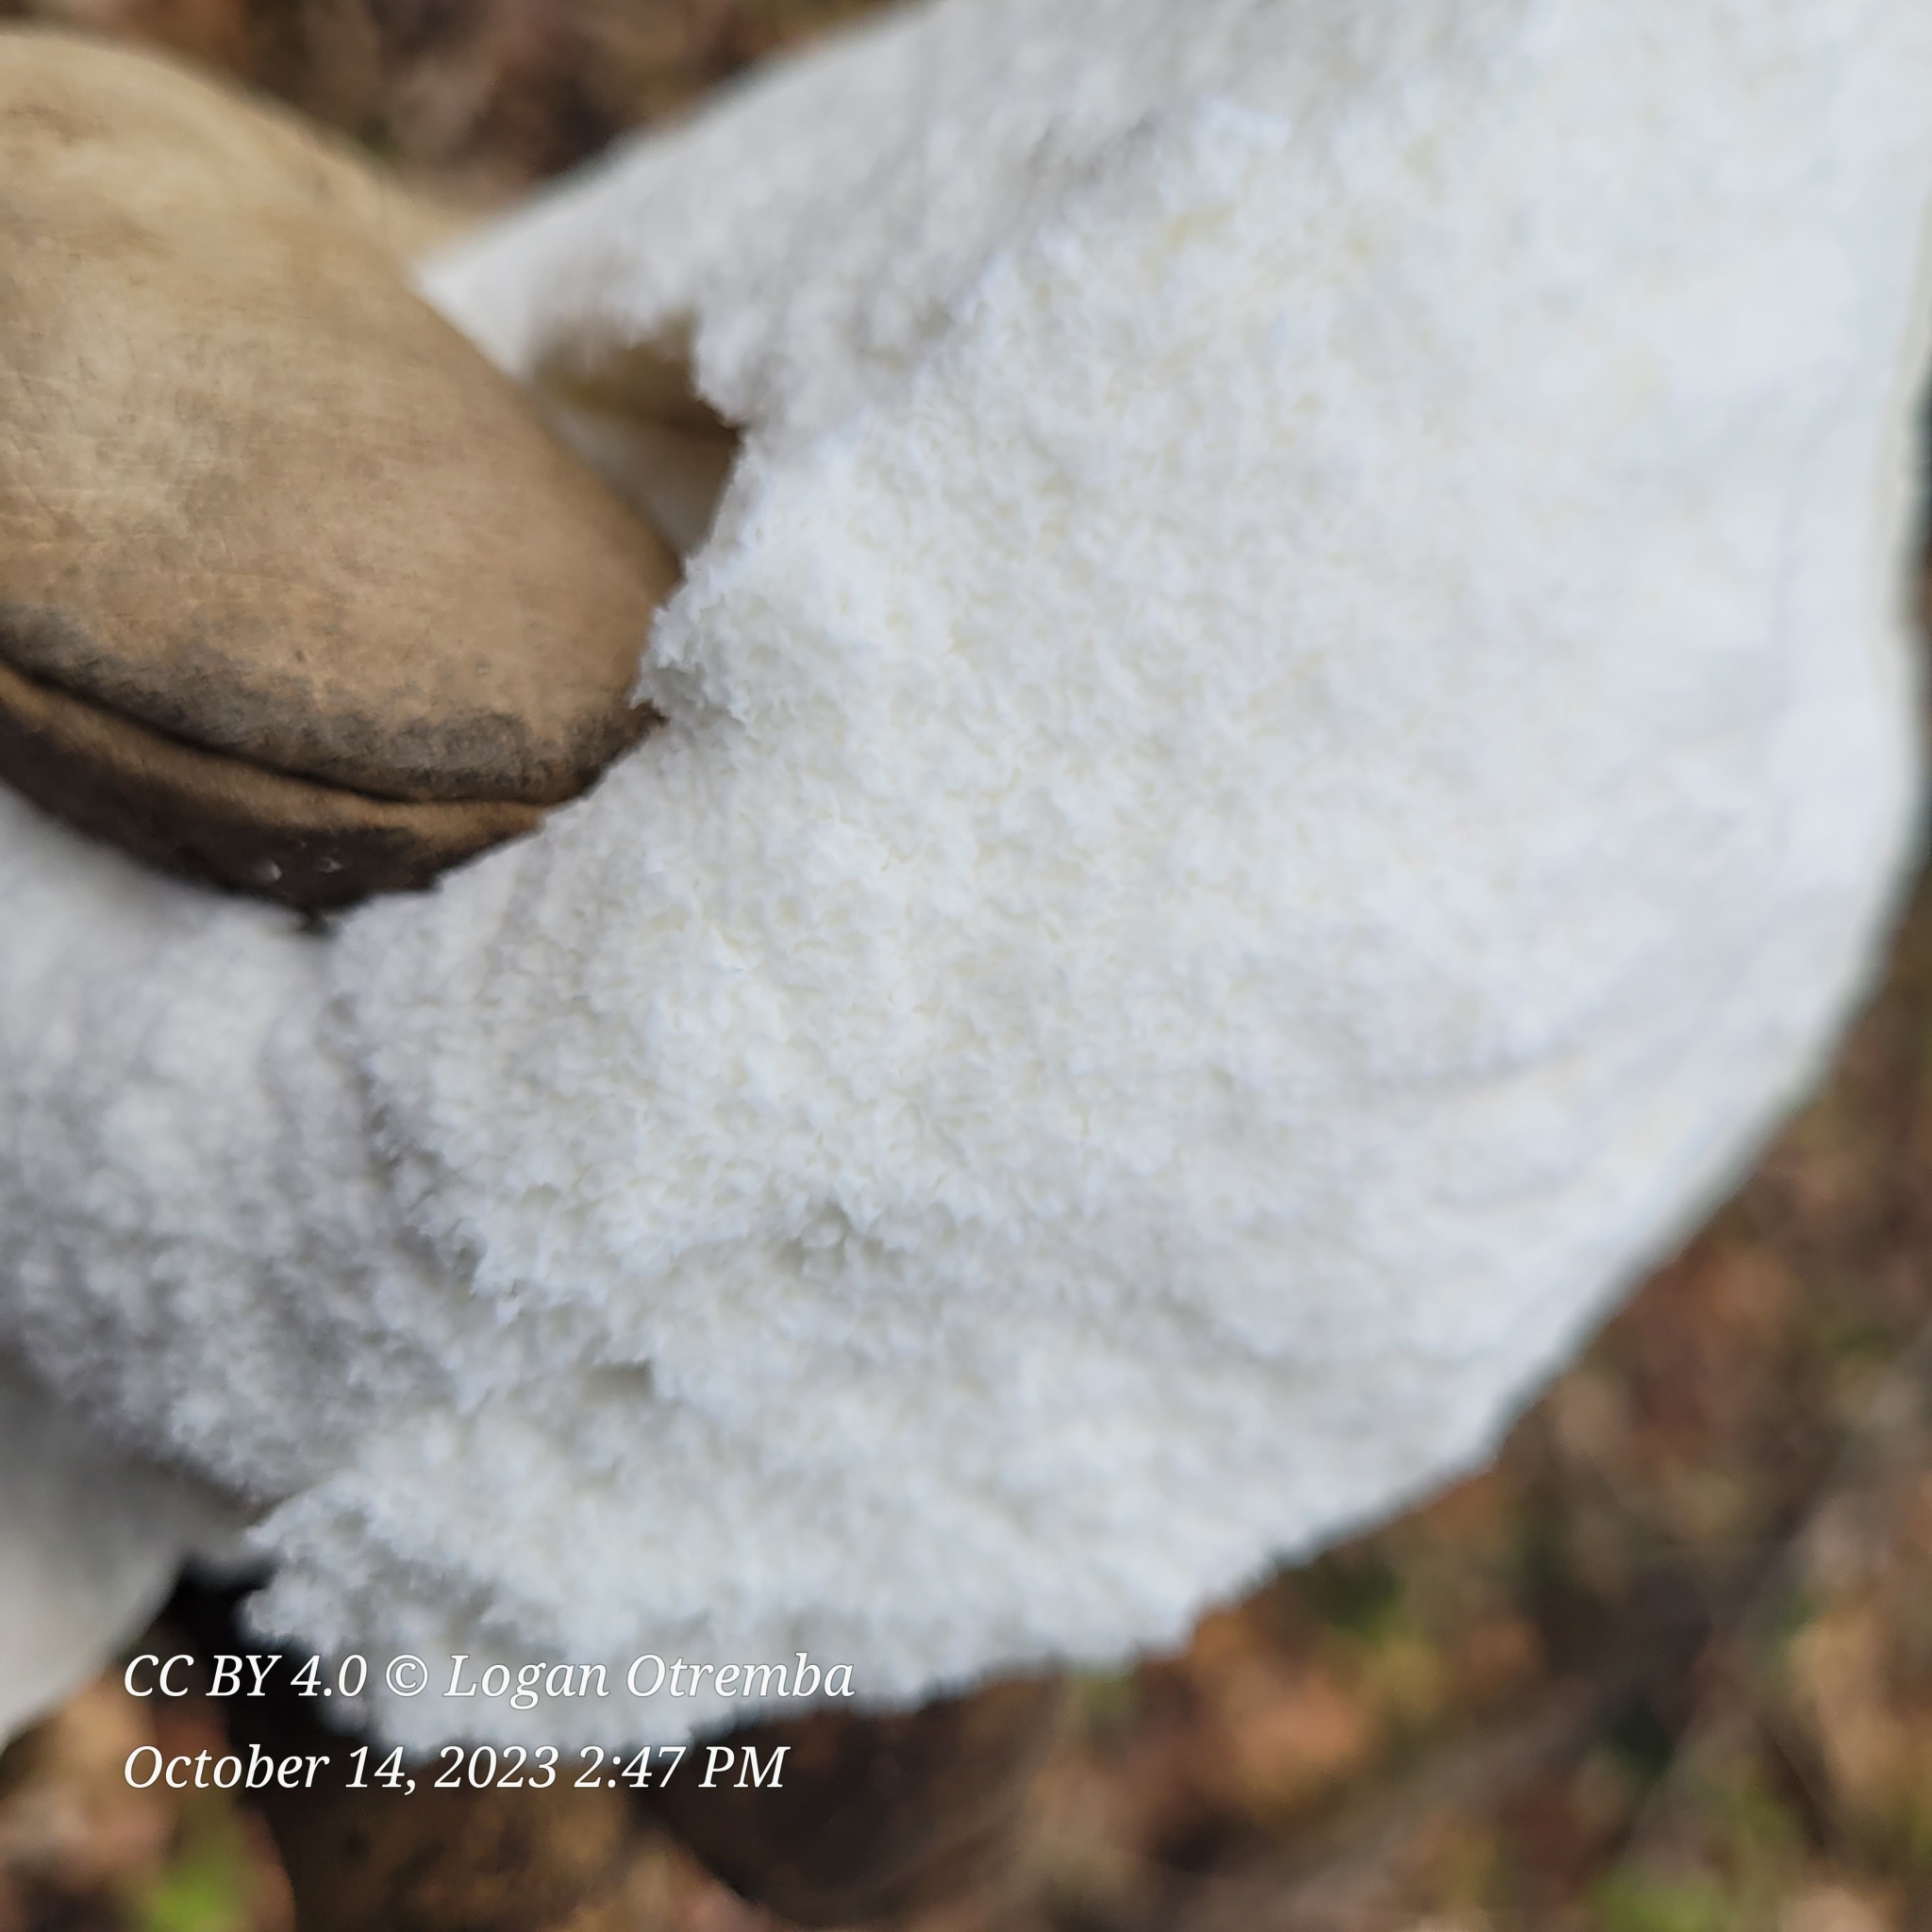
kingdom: Fungi
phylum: Basidiomycota
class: Agaricomycetes
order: Agaricales
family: Lycoperdaceae
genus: Calvatia
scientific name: Calvatia gigantea
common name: Giant puffball
